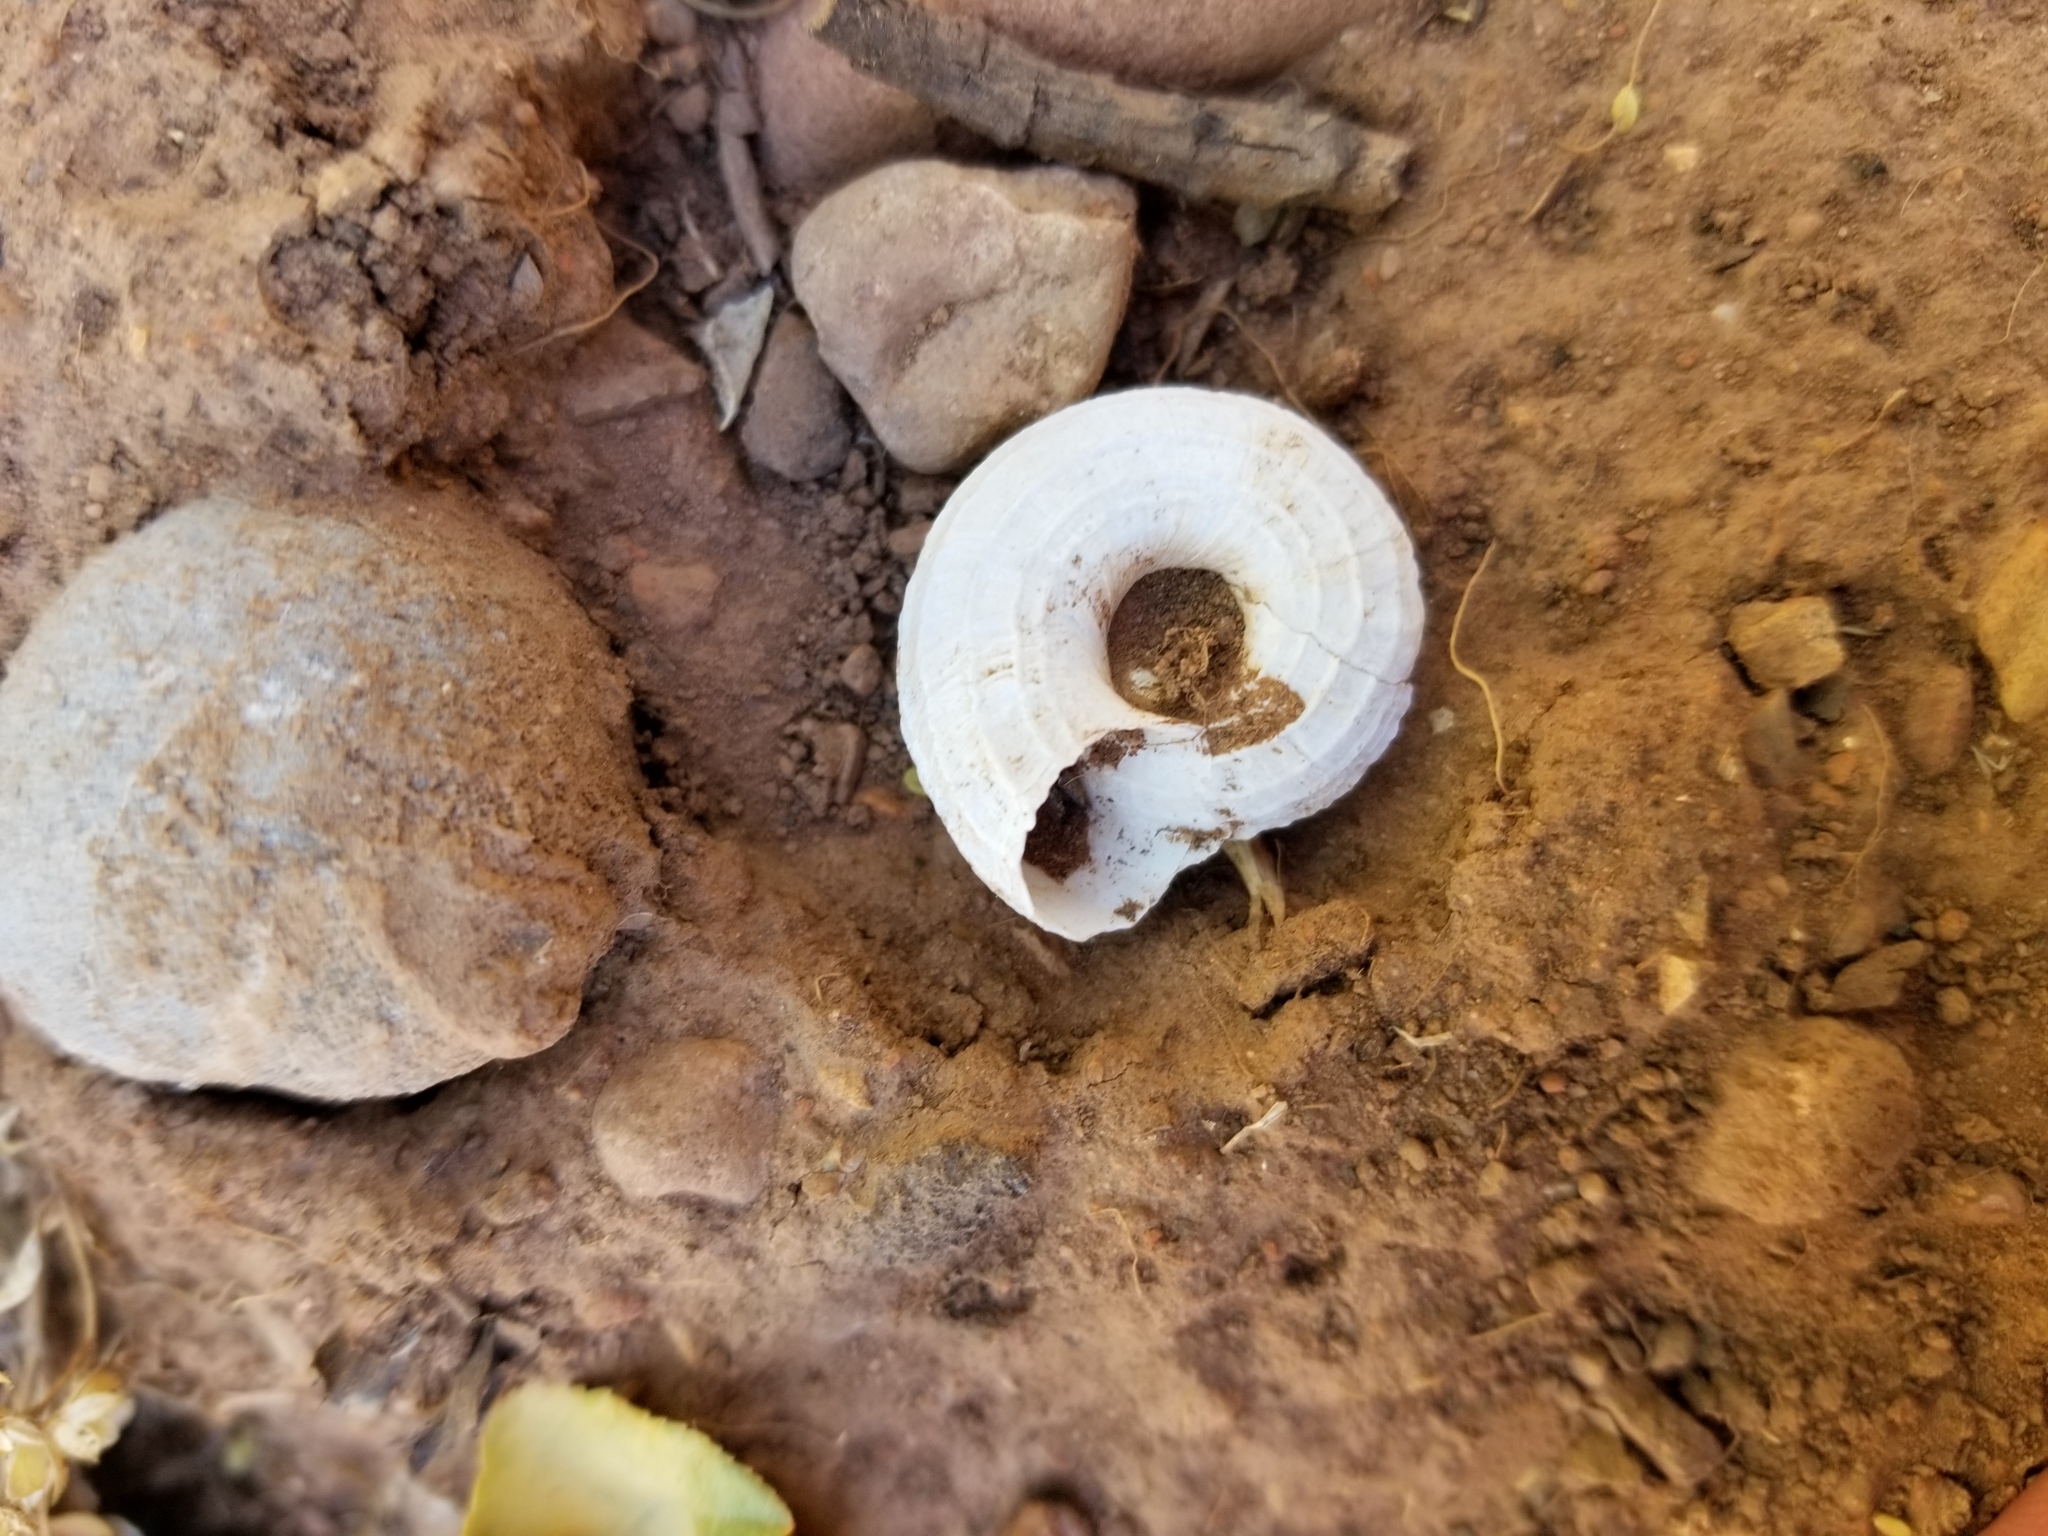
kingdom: Animalia
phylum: Mollusca
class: Gastropoda
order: Stylommatophora
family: Oreohelicidae
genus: Oreohelix
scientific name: Oreohelix haydeni
